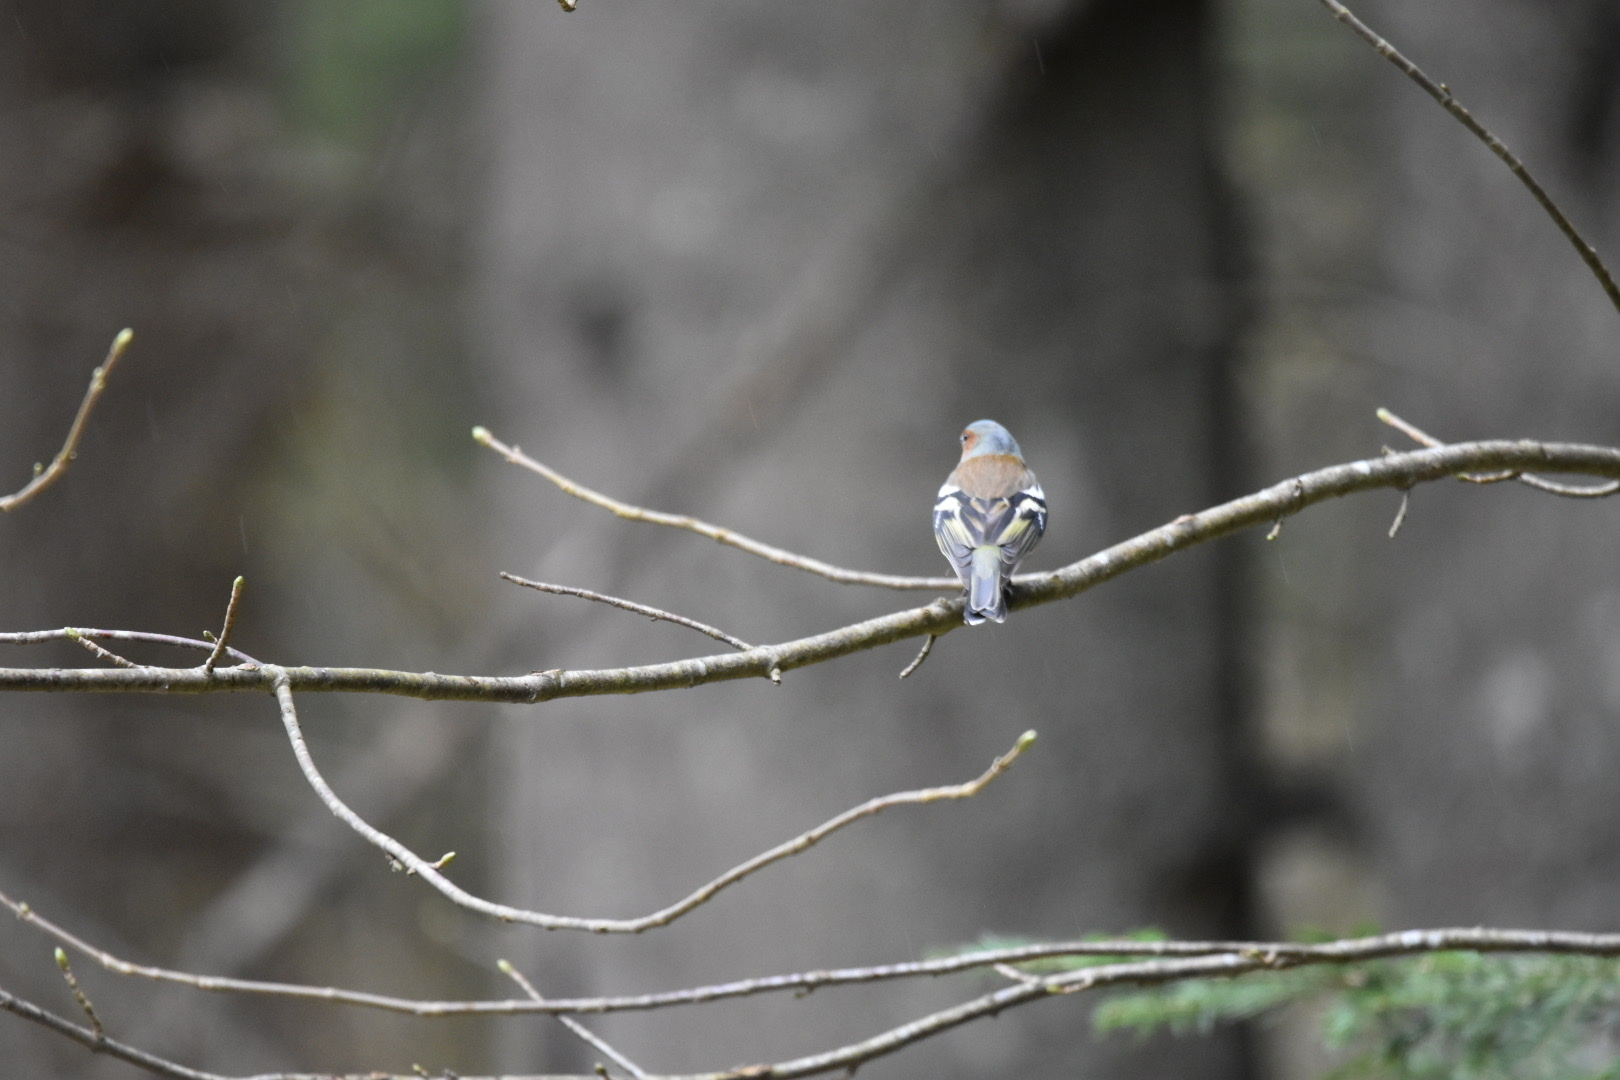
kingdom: Animalia
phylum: Chordata
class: Aves
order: Passeriformes
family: Fringillidae
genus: Fringilla
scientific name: Fringilla coelebs
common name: Common chaffinch
